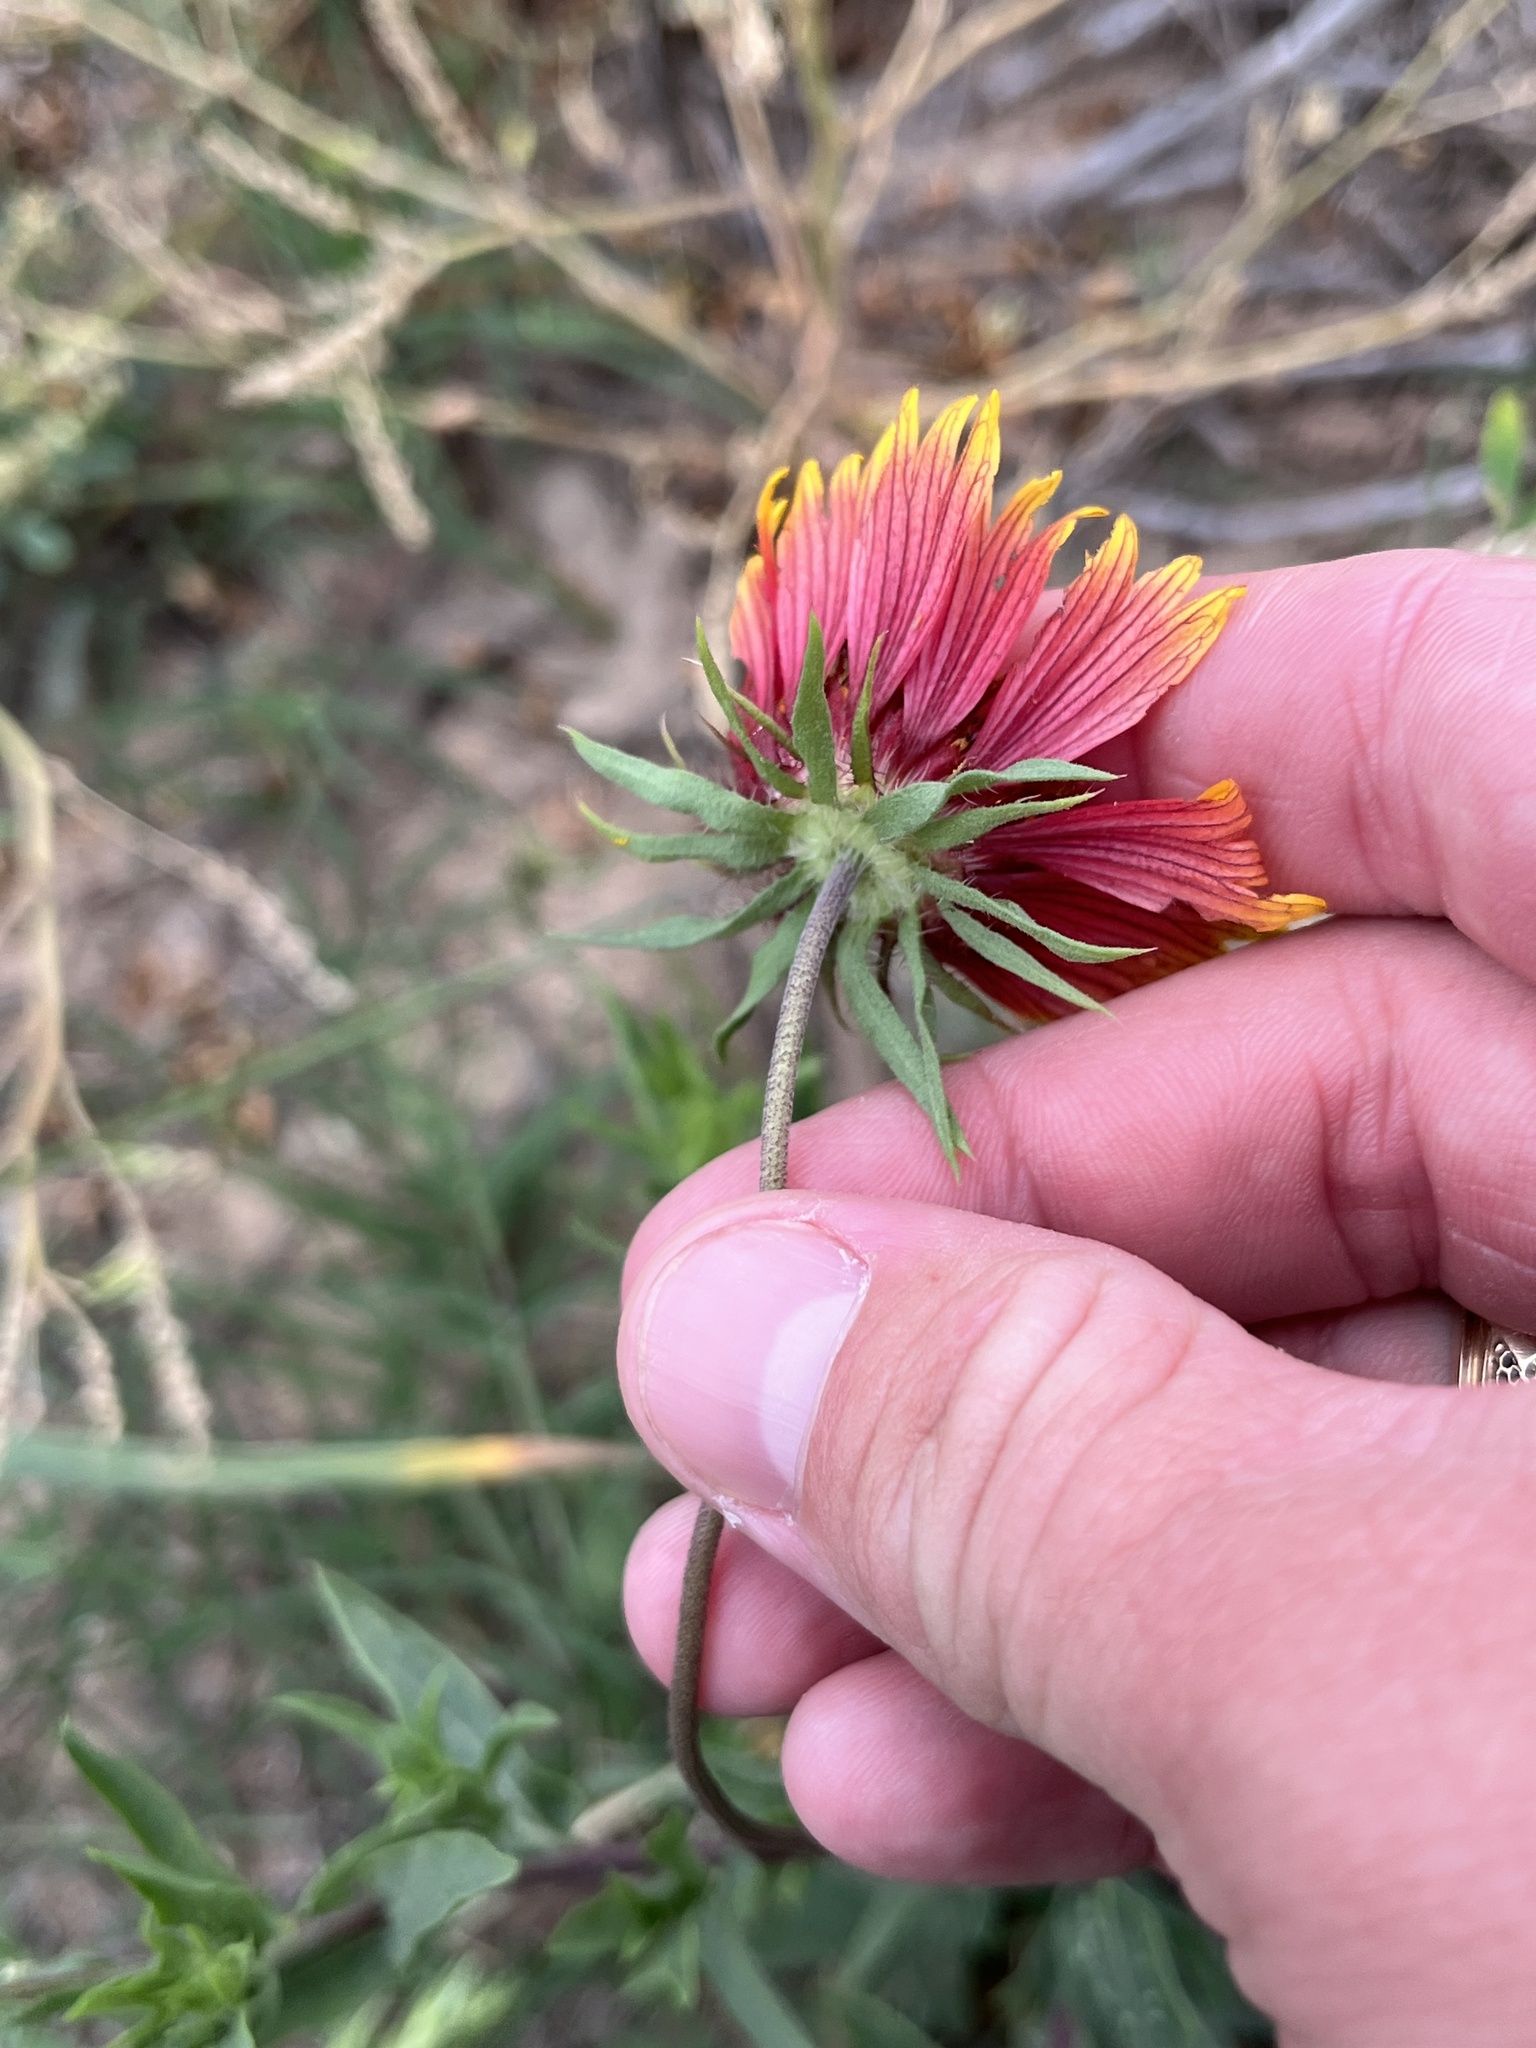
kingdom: Plantae
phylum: Tracheophyta
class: Magnoliopsida
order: Asterales
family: Asteraceae
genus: Gaillardia
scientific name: Gaillardia pulchella
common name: Firewheel
